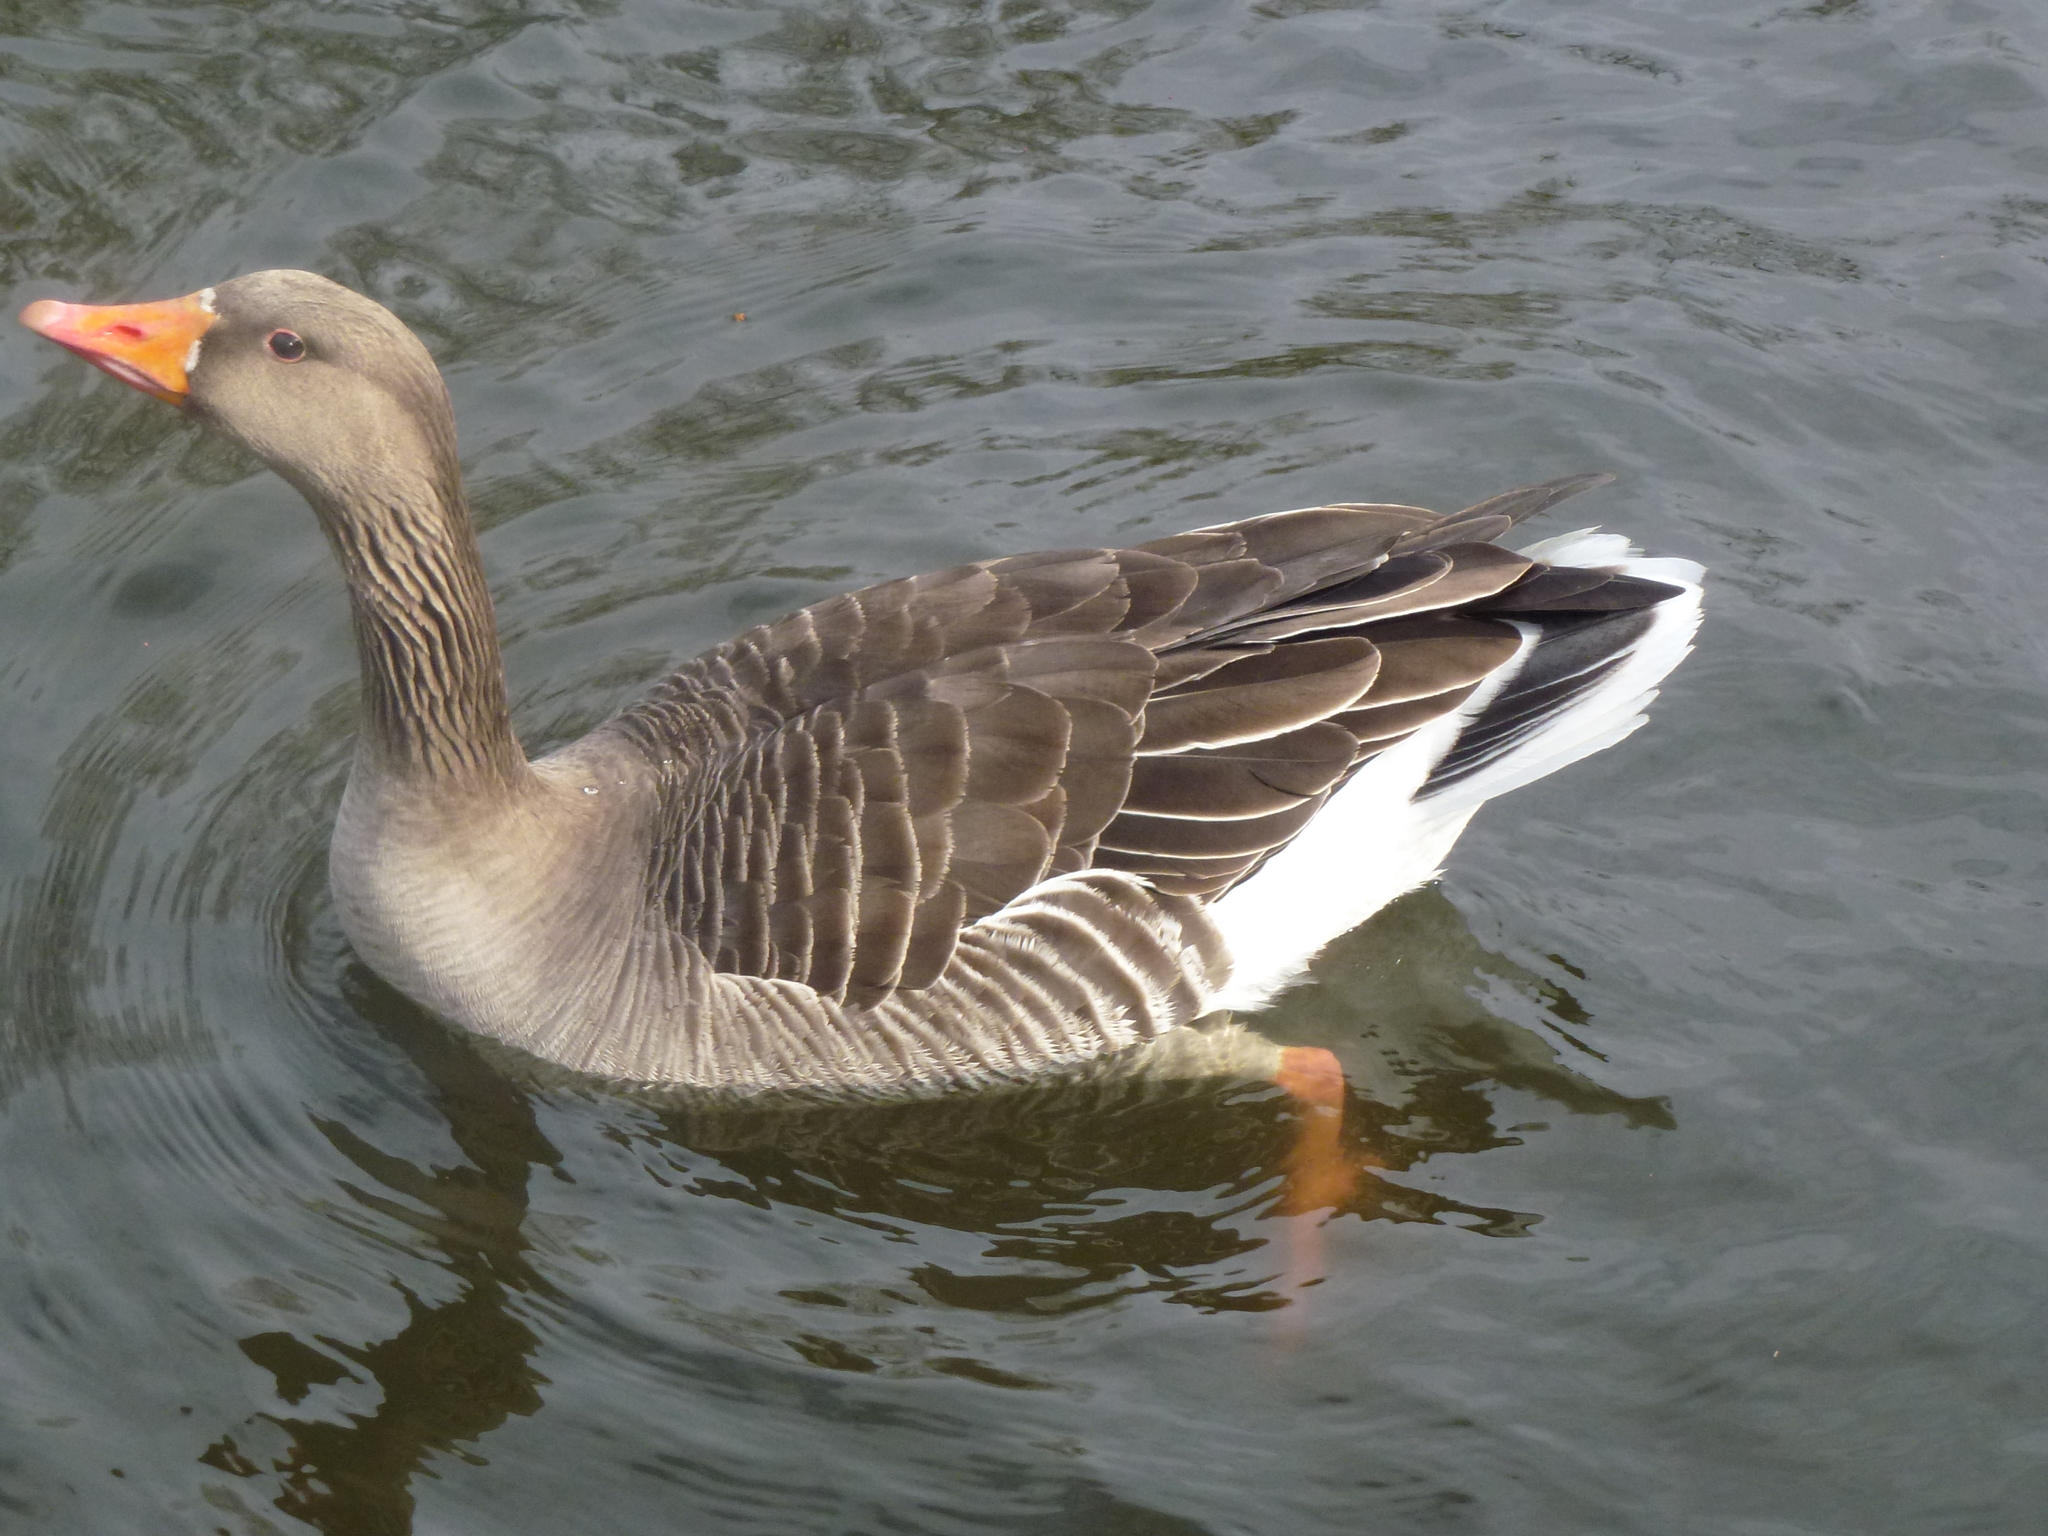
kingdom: Animalia
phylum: Chordata
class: Aves
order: Anseriformes
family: Anatidae
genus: Anser
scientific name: Anser anser
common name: Greylag goose
